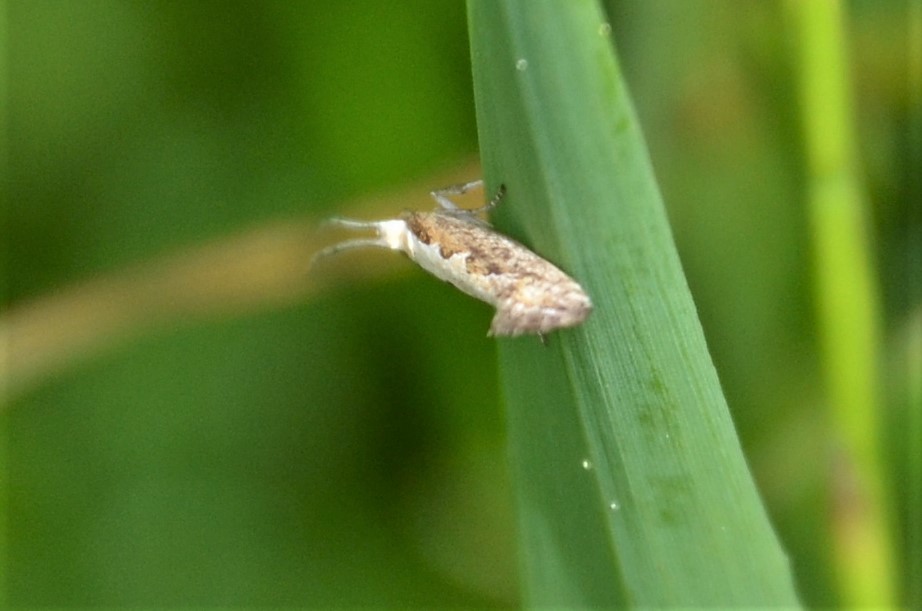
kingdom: Animalia
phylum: Arthropoda
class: Insecta
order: Lepidoptera
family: Plutellidae
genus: Plutella
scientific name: Plutella xylostella
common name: Diamond-back moth
